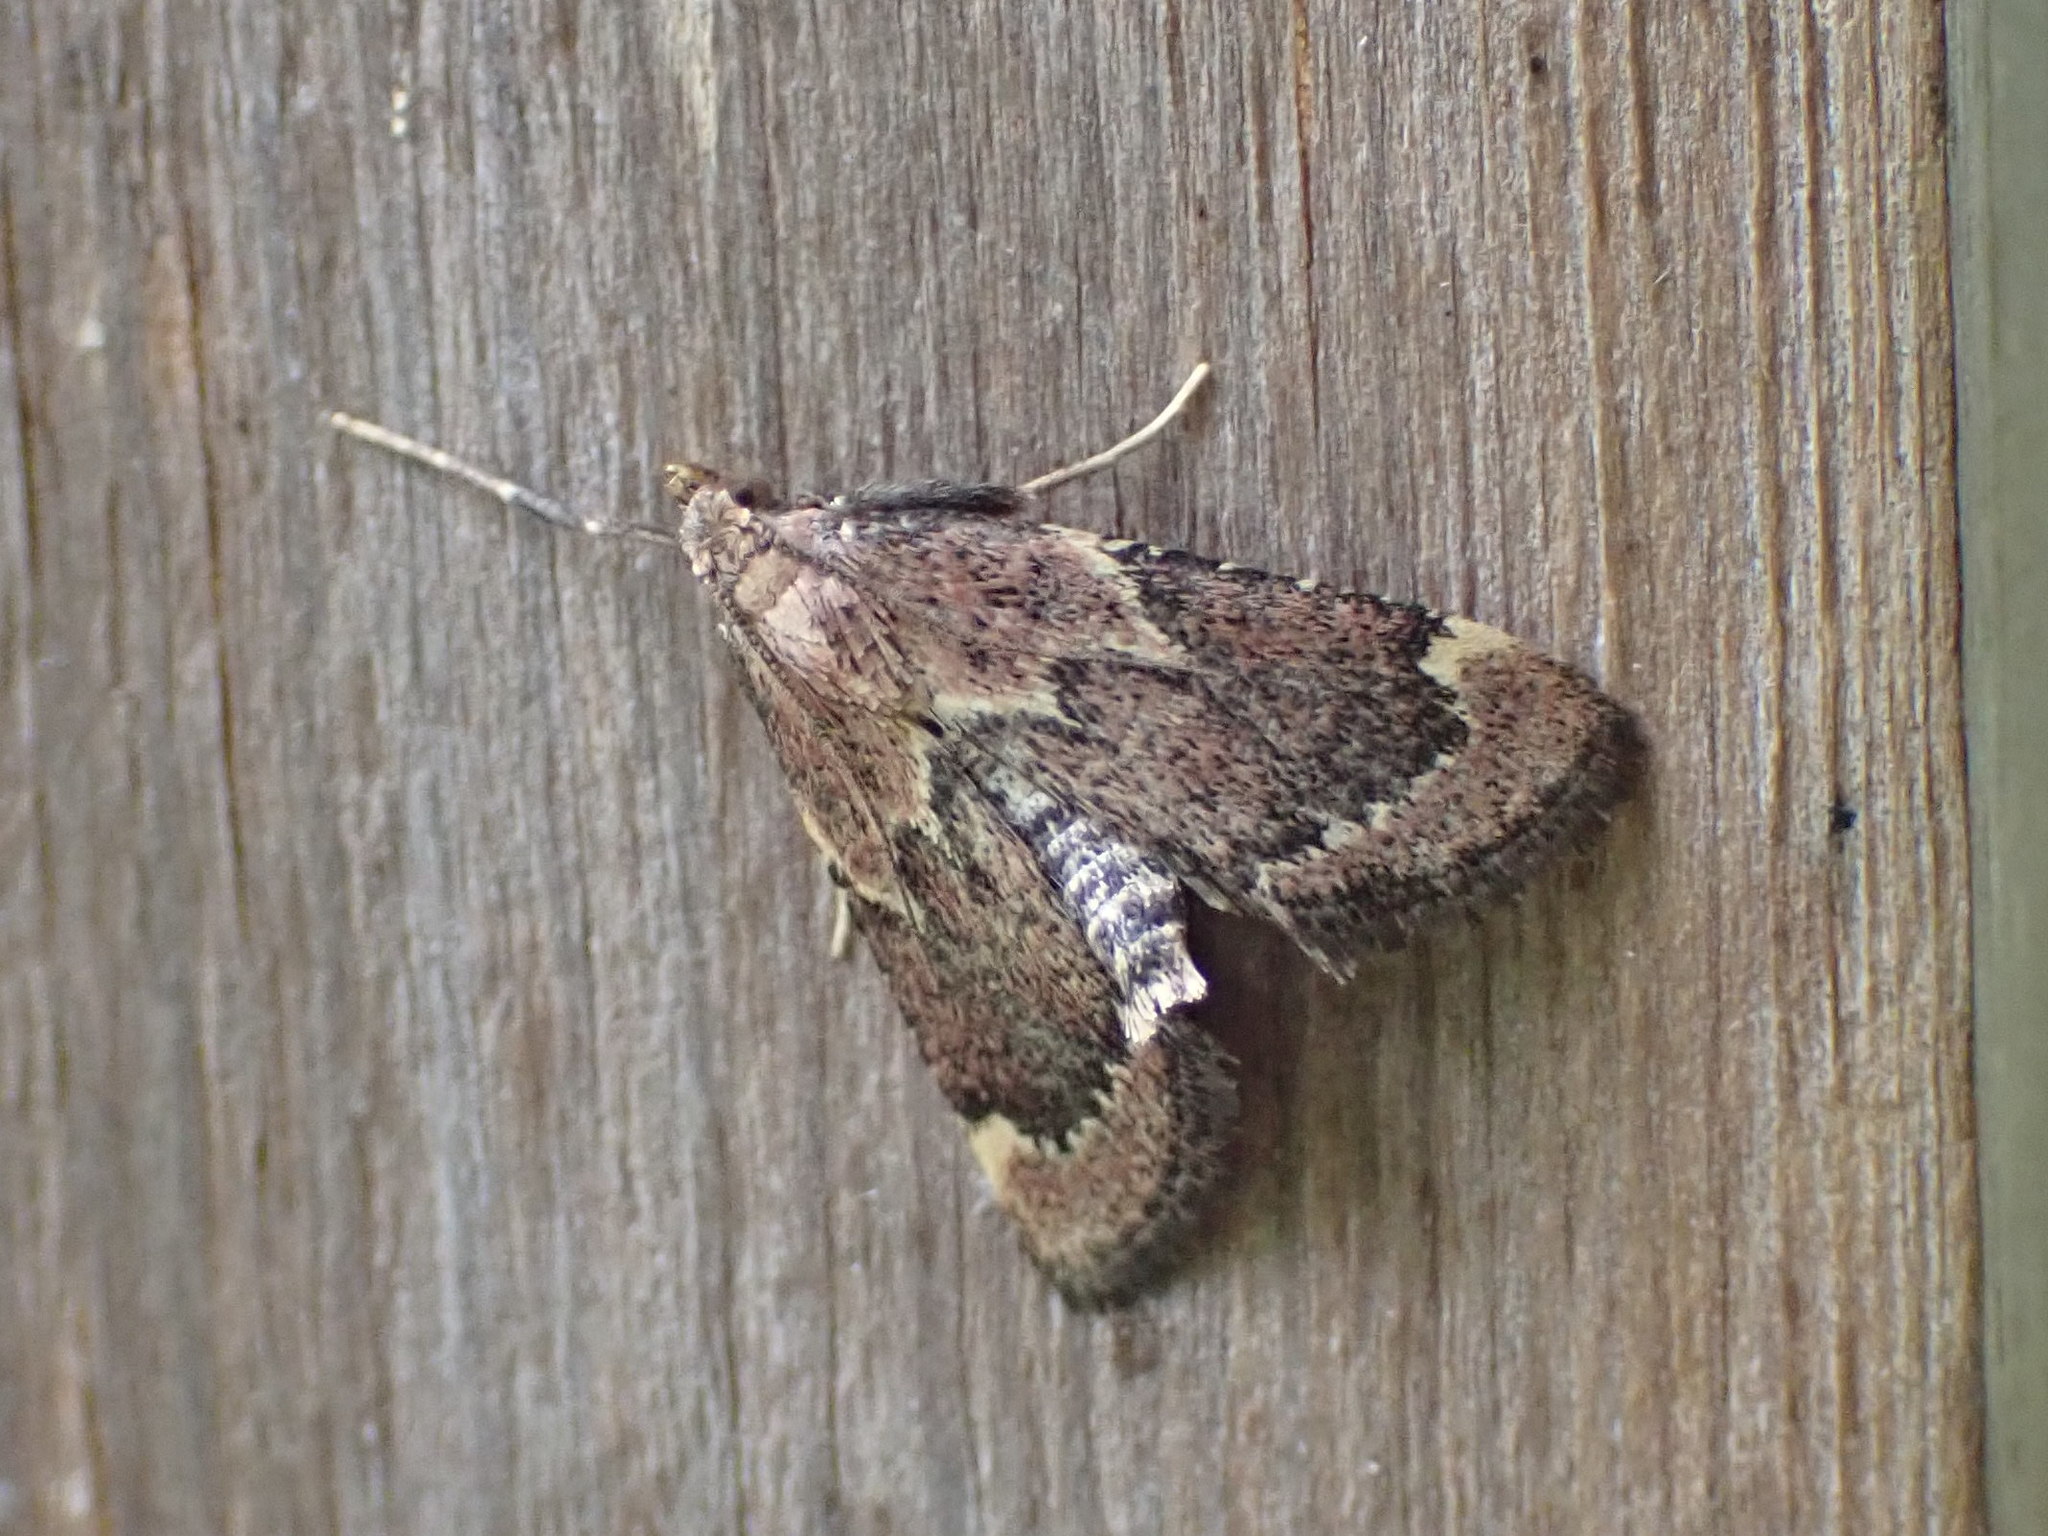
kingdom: Animalia
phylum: Arthropoda
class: Insecta
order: Lepidoptera
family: Pyralidae
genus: Hypsopygia
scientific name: Hypsopygia intermedialis
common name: Red-shawled moth
